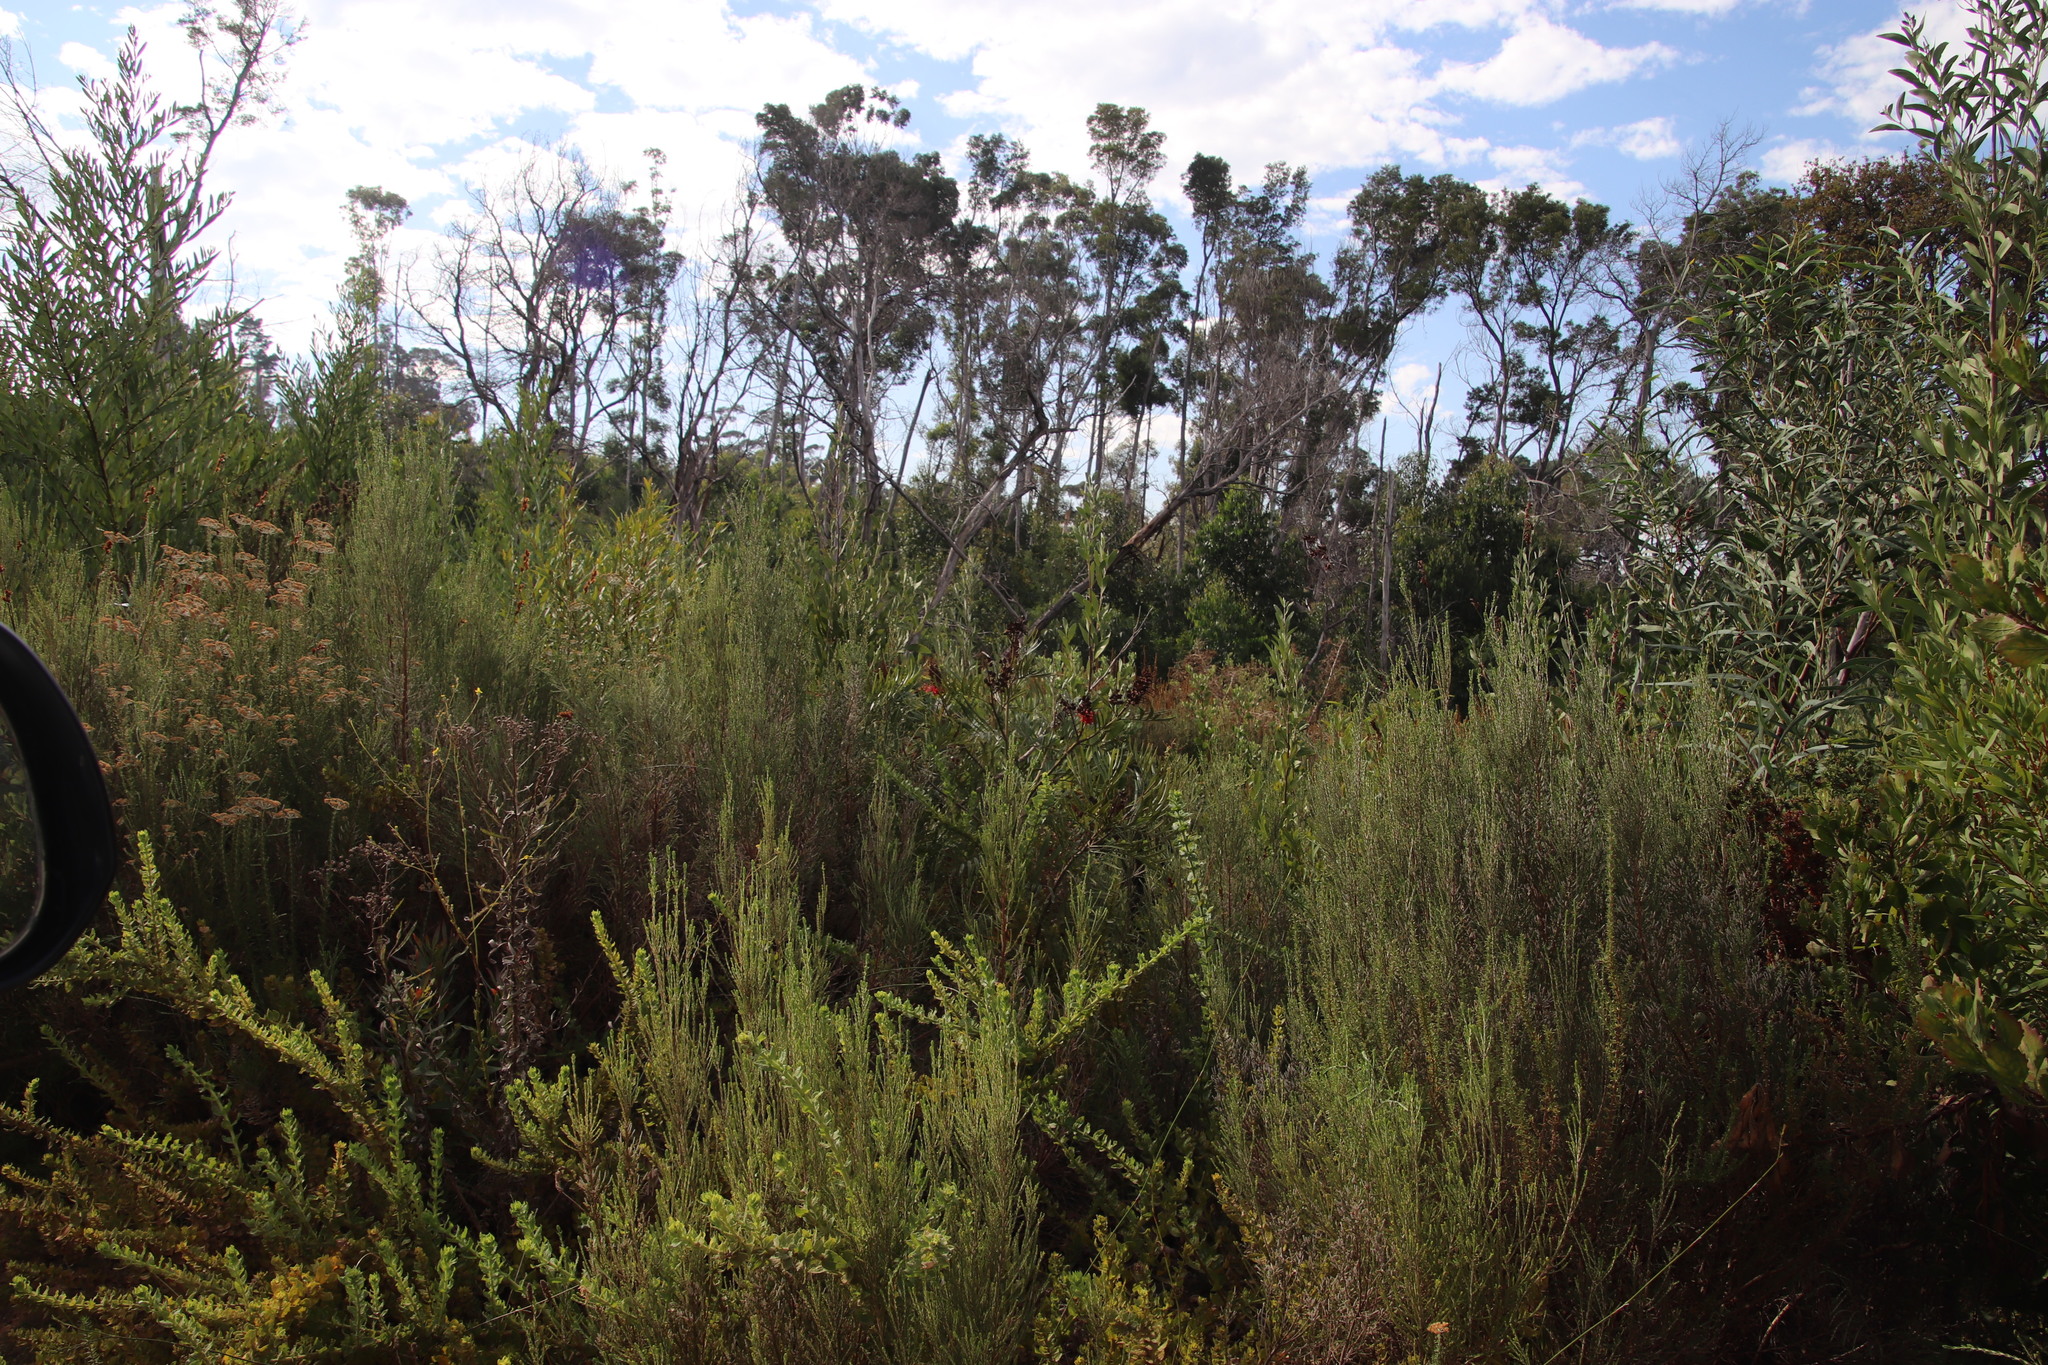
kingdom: Plantae
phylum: Tracheophyta
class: Magnoliopsida
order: Proteales
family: Proteaceae
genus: Grevillea
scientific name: Grevillea banksii
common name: Kahili flower
